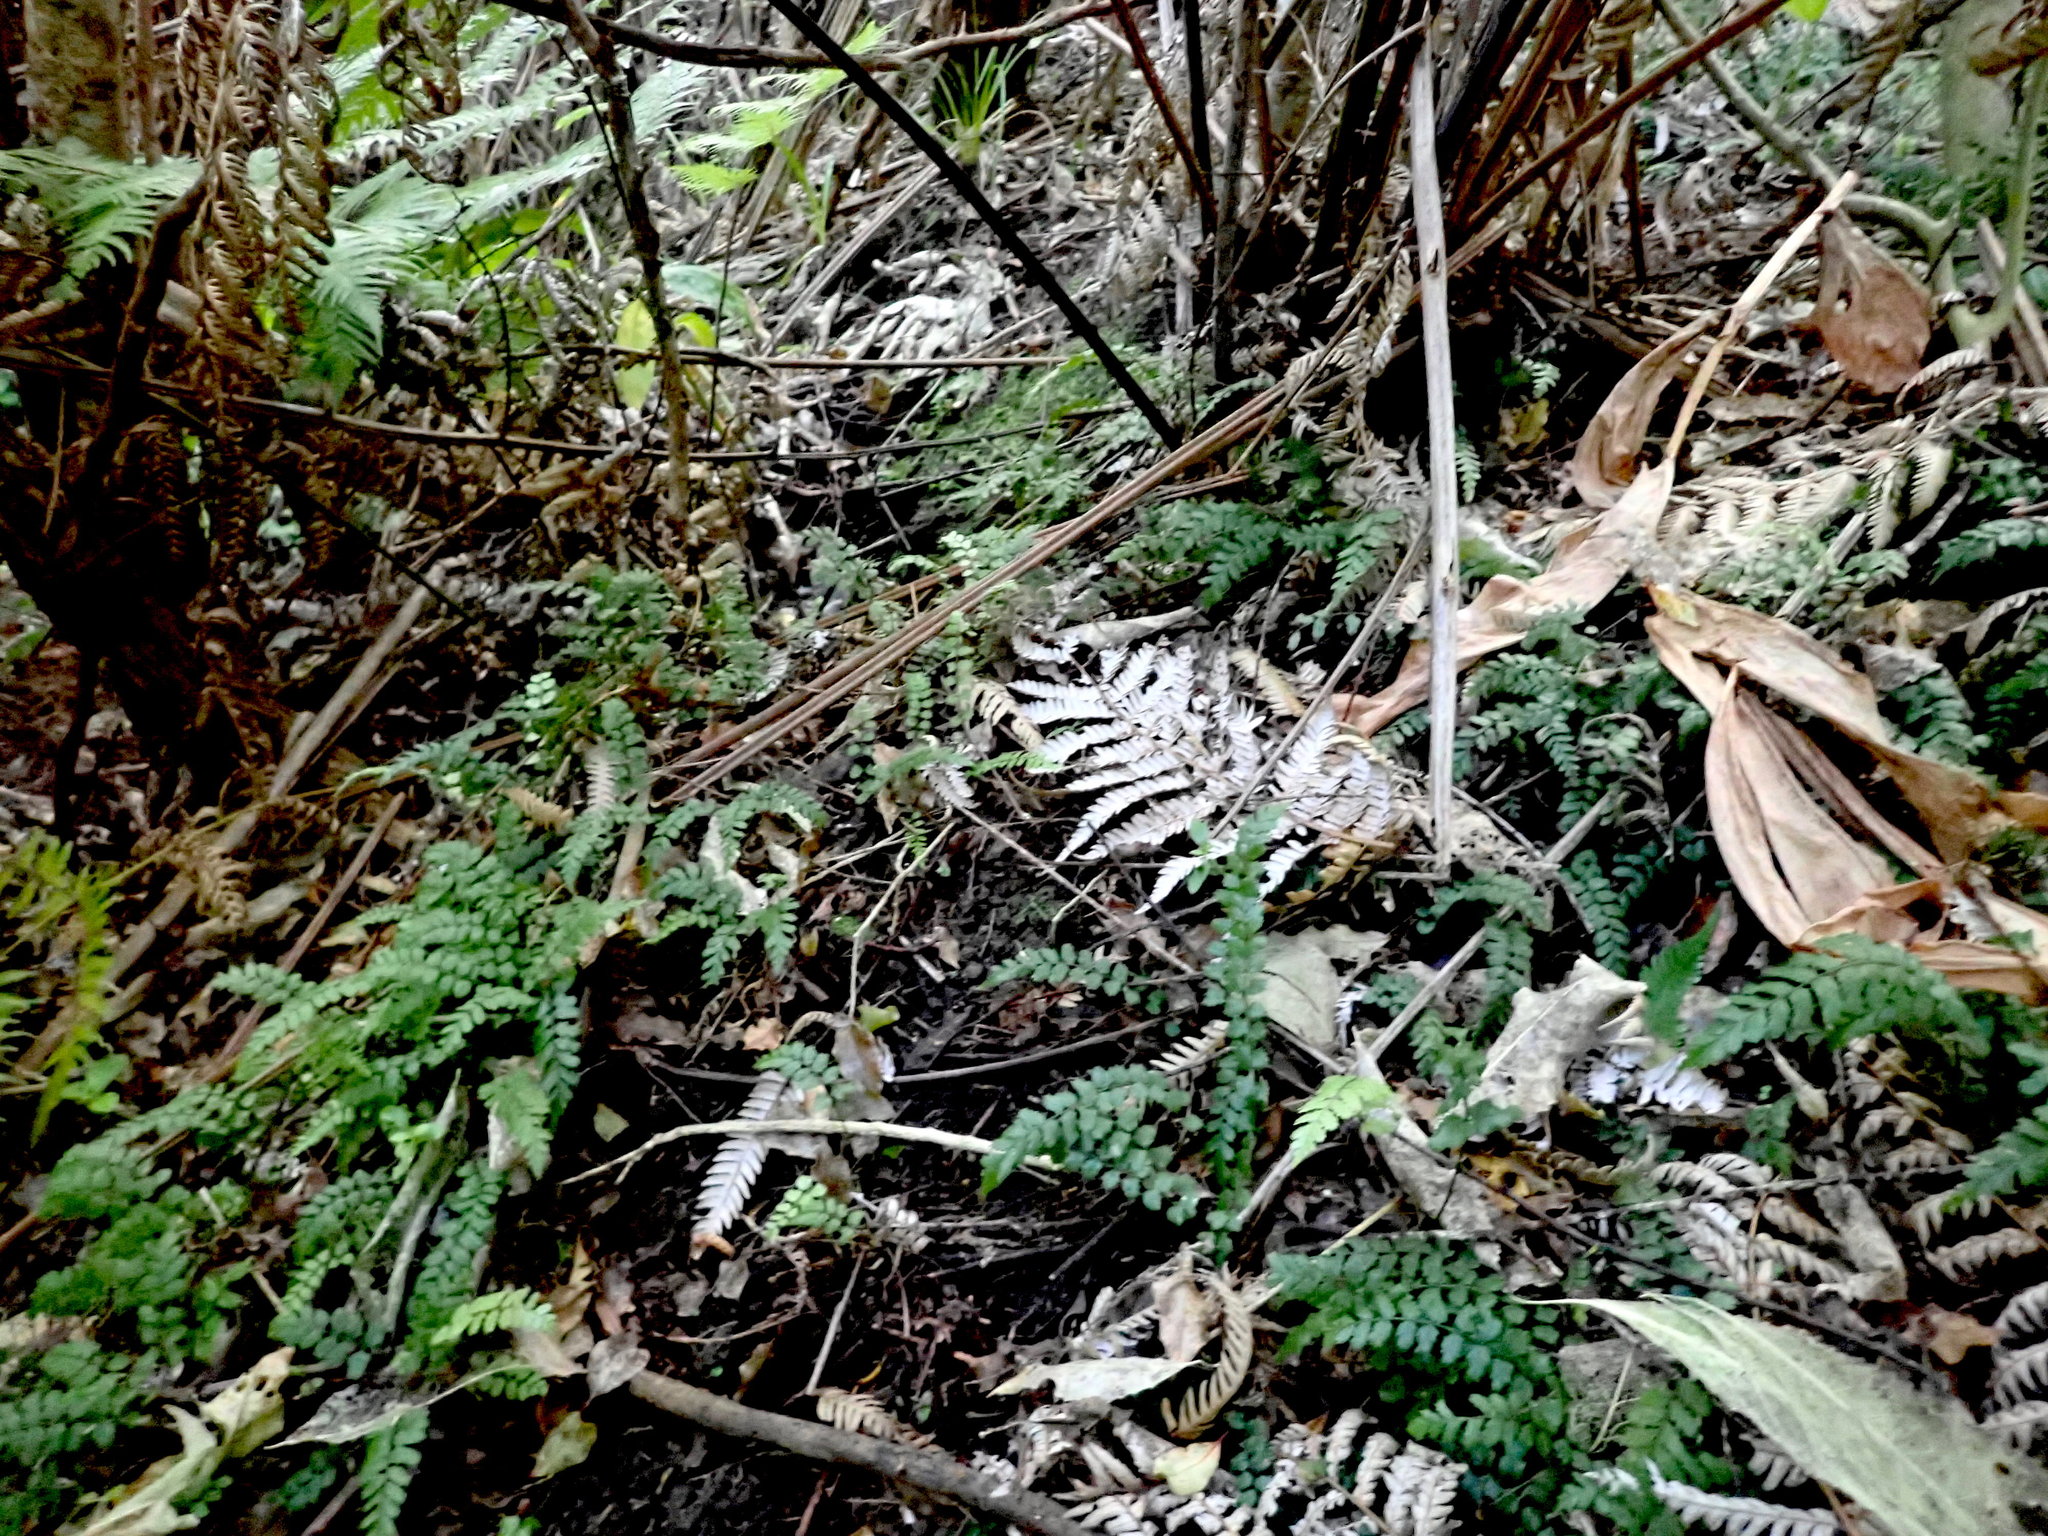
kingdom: Plantae
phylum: Tracheophyta
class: Polypodiopsida
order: Polypodiales
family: Blechnaceae
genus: Icarus
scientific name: Icarus filiformis
